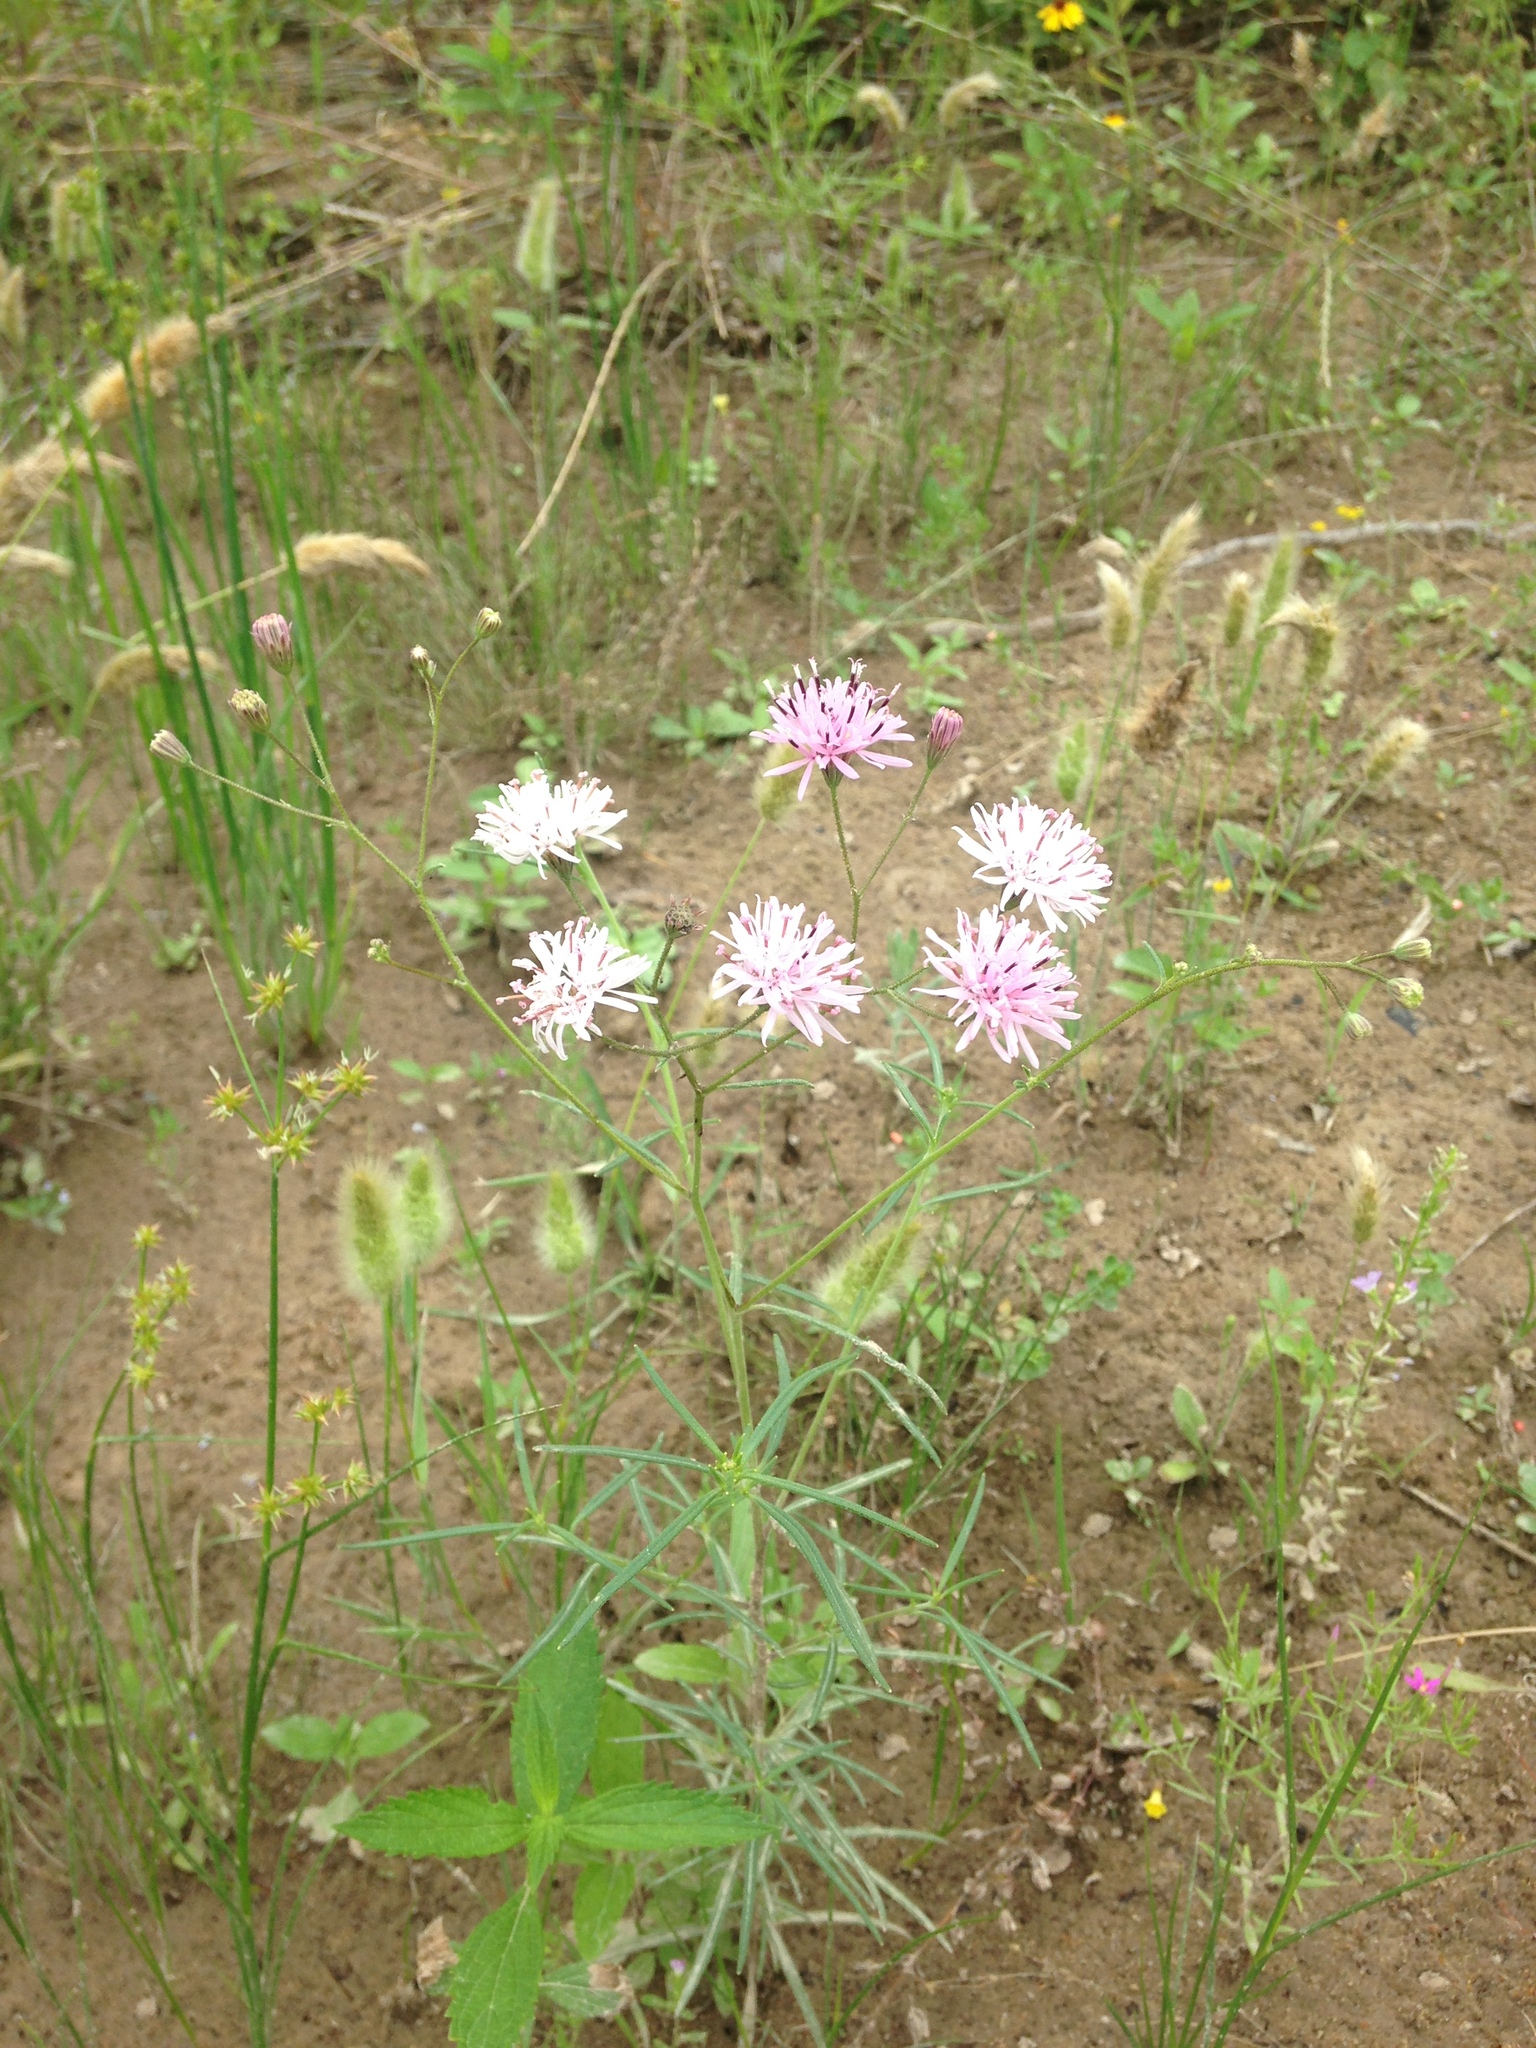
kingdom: Plantae
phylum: Tracheophyta
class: Magnoliopsida
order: Asterales
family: Asteraceae
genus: Palafoxia
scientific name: Palafoxia callosa
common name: Small palafox
